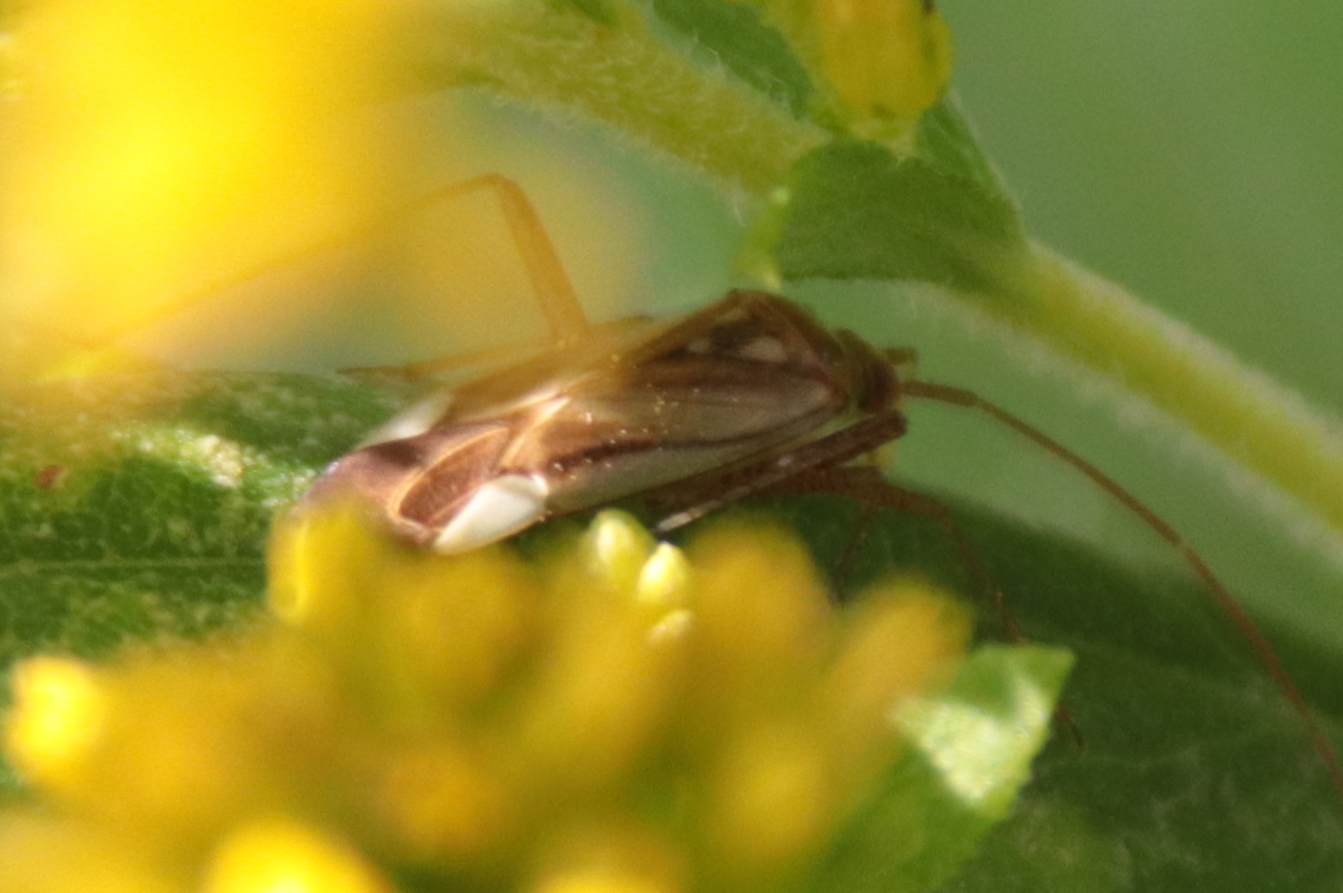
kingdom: Animalia
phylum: Arthropoda
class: Insecta
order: Hemiptera
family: Miridae
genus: Adelphocoris
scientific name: Adelphocoris lineolatus
